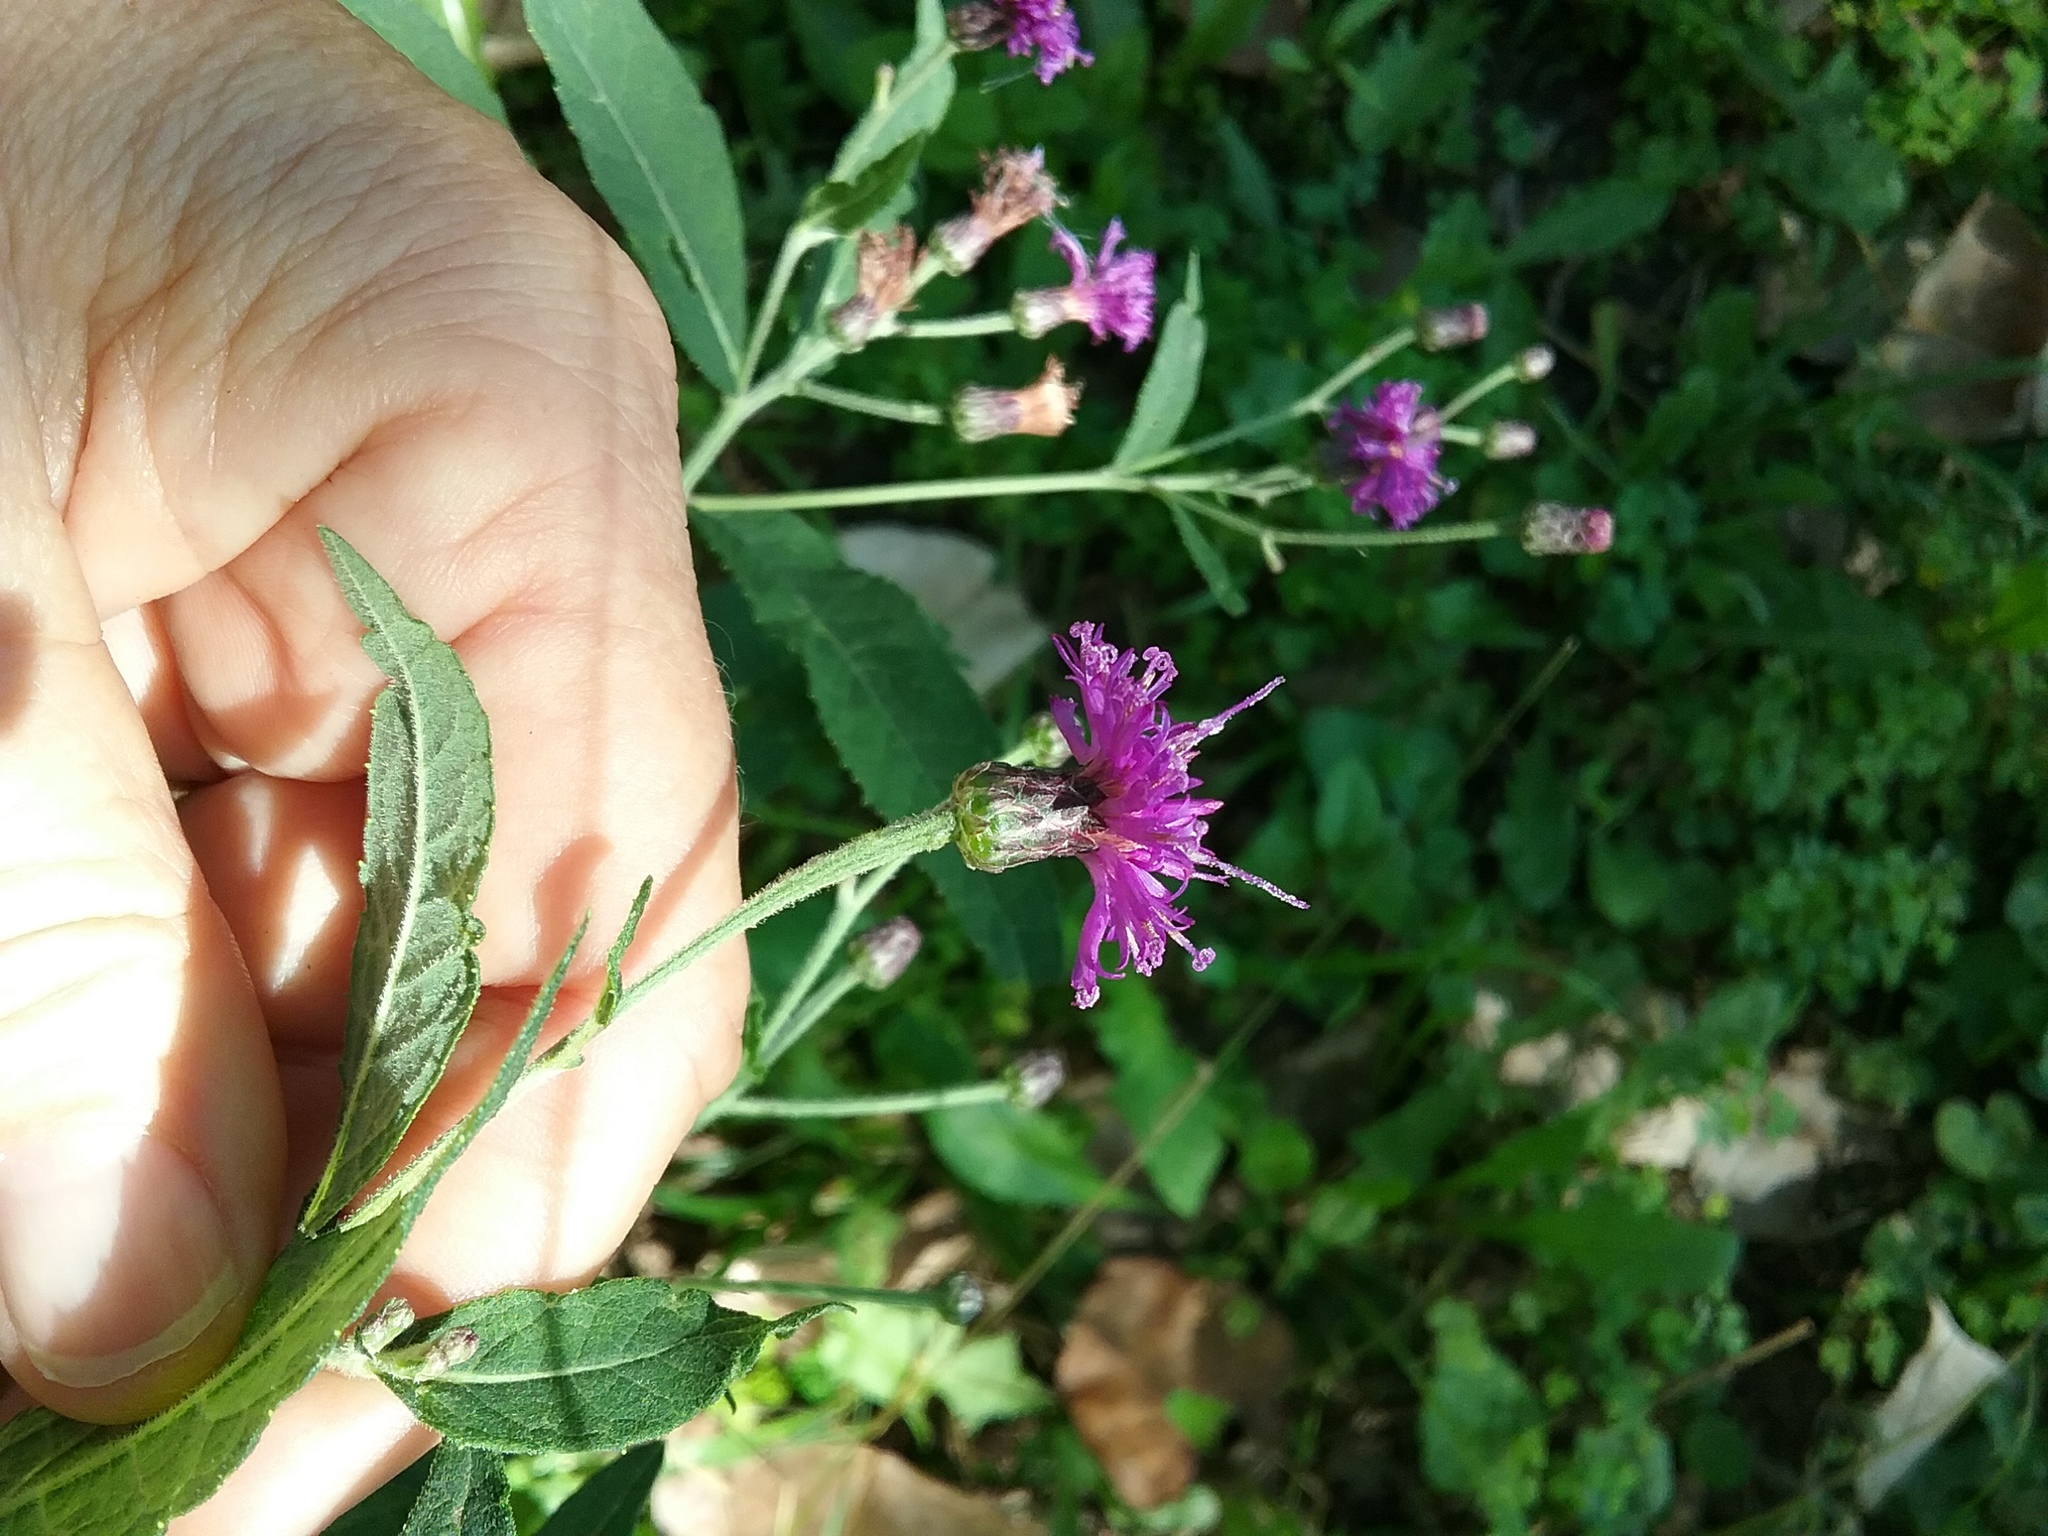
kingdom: Plantae
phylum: Tracheophyta
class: Magnoliopsida
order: Asterales
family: Asteraceae
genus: Vernonia
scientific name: Vernonia missurica
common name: Missouri ironweed
